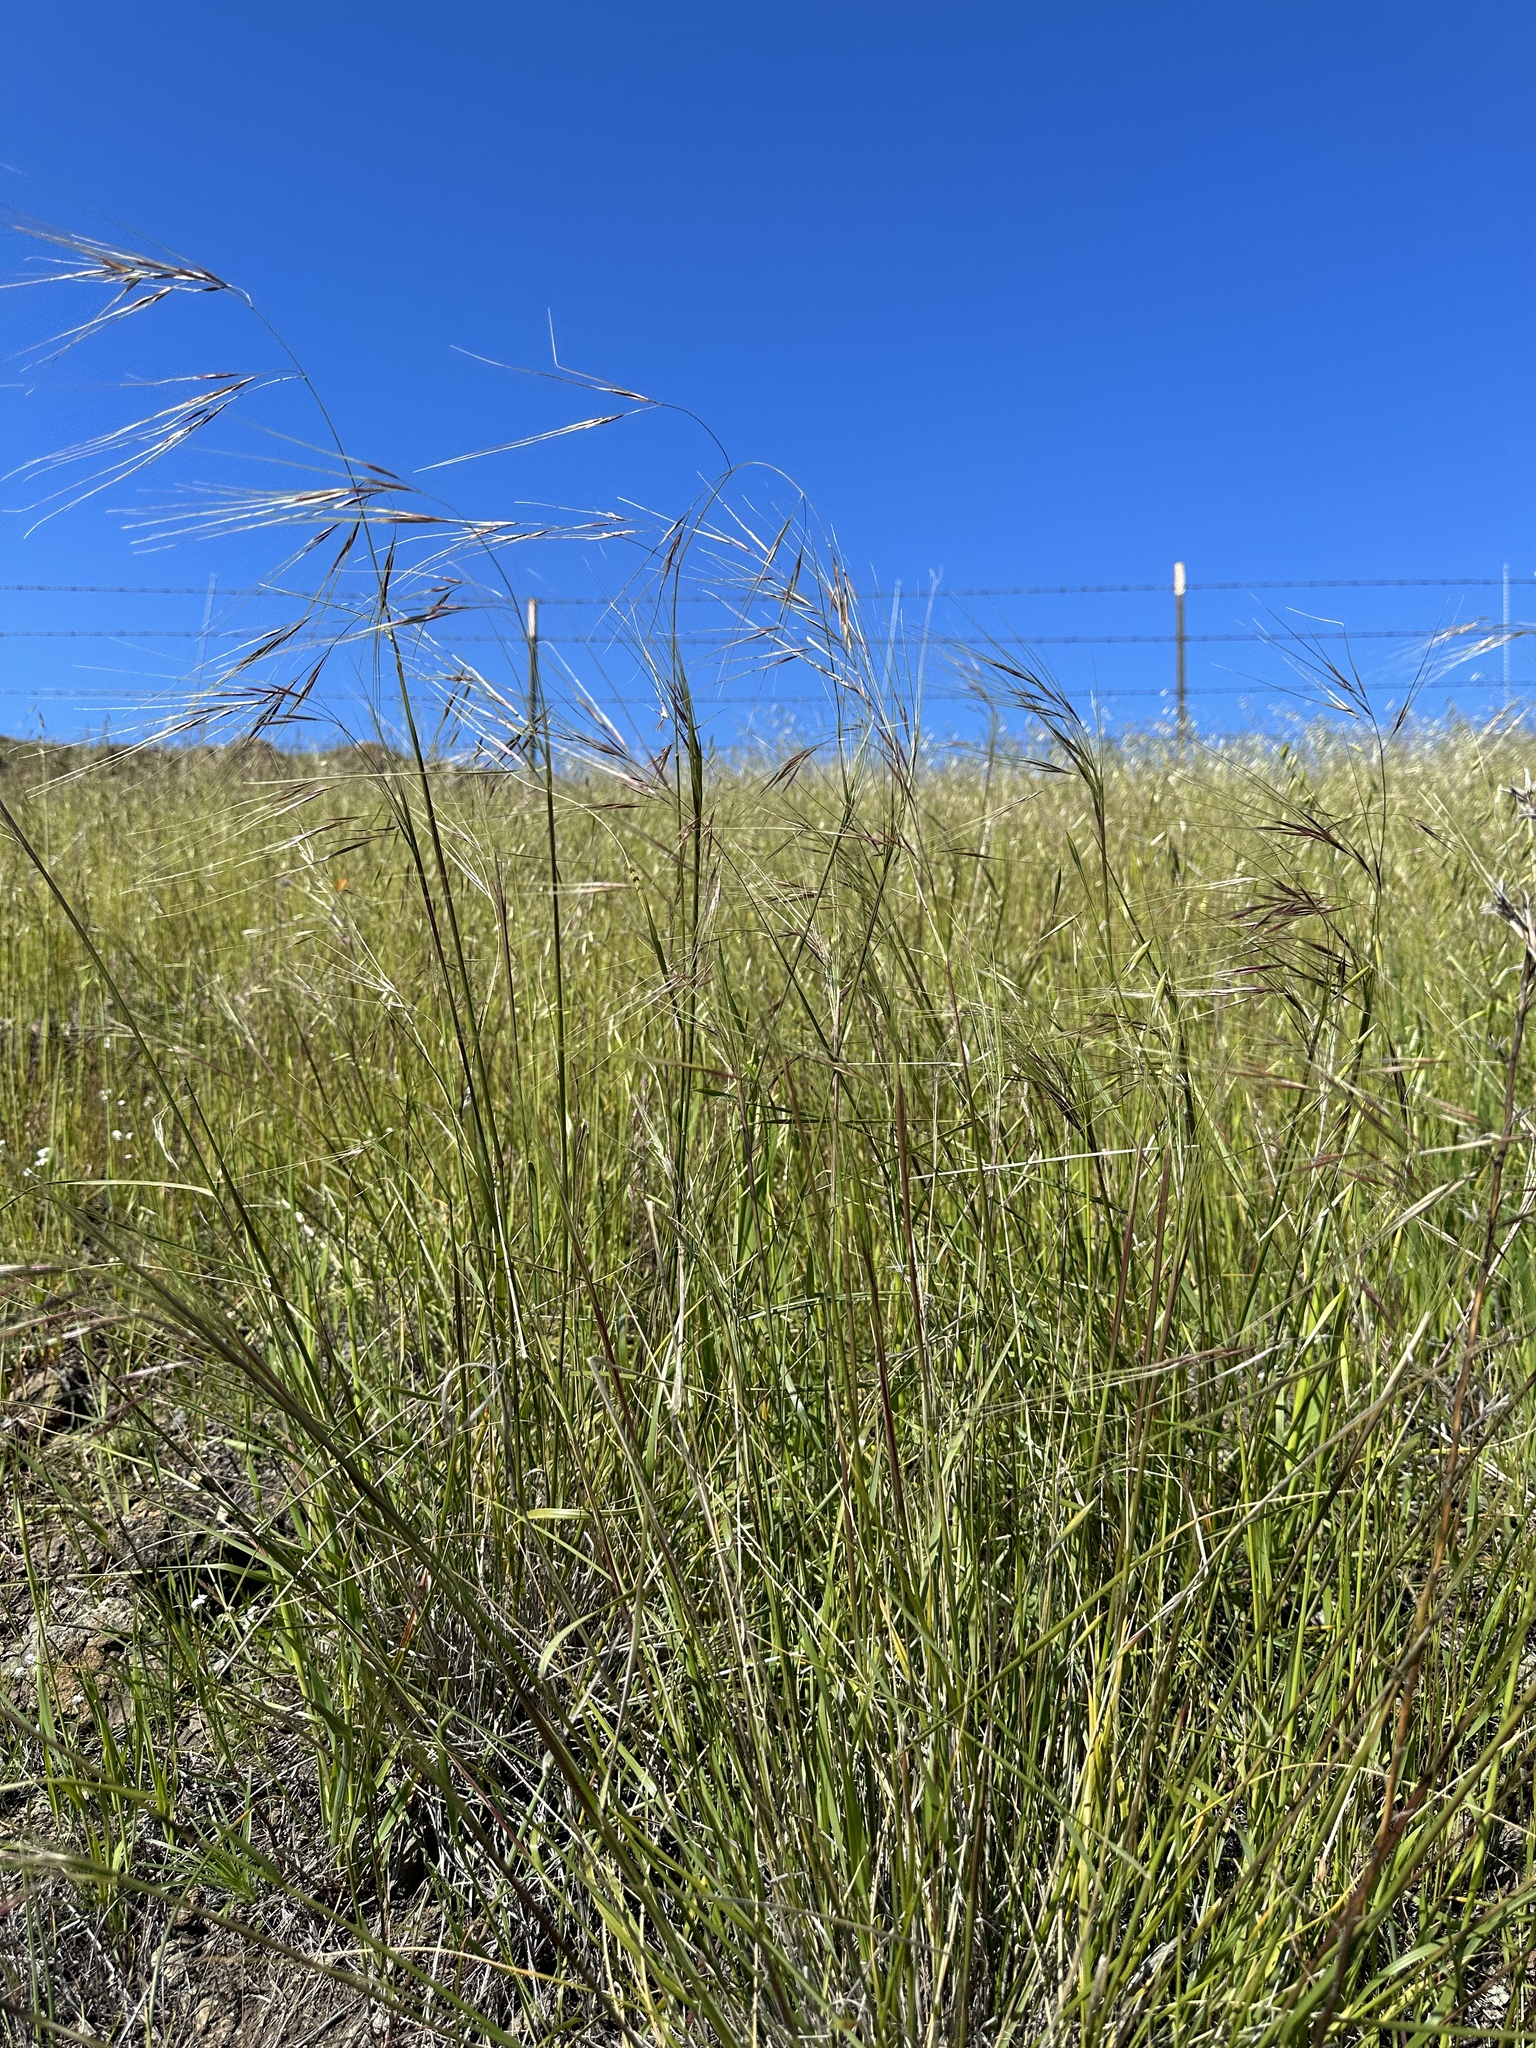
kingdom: Plantae
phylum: Tracheophyta
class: Liliopsida
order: Poales
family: Poaceae
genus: Nassella
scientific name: Nassella pulchra
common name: Purple needlegrass
